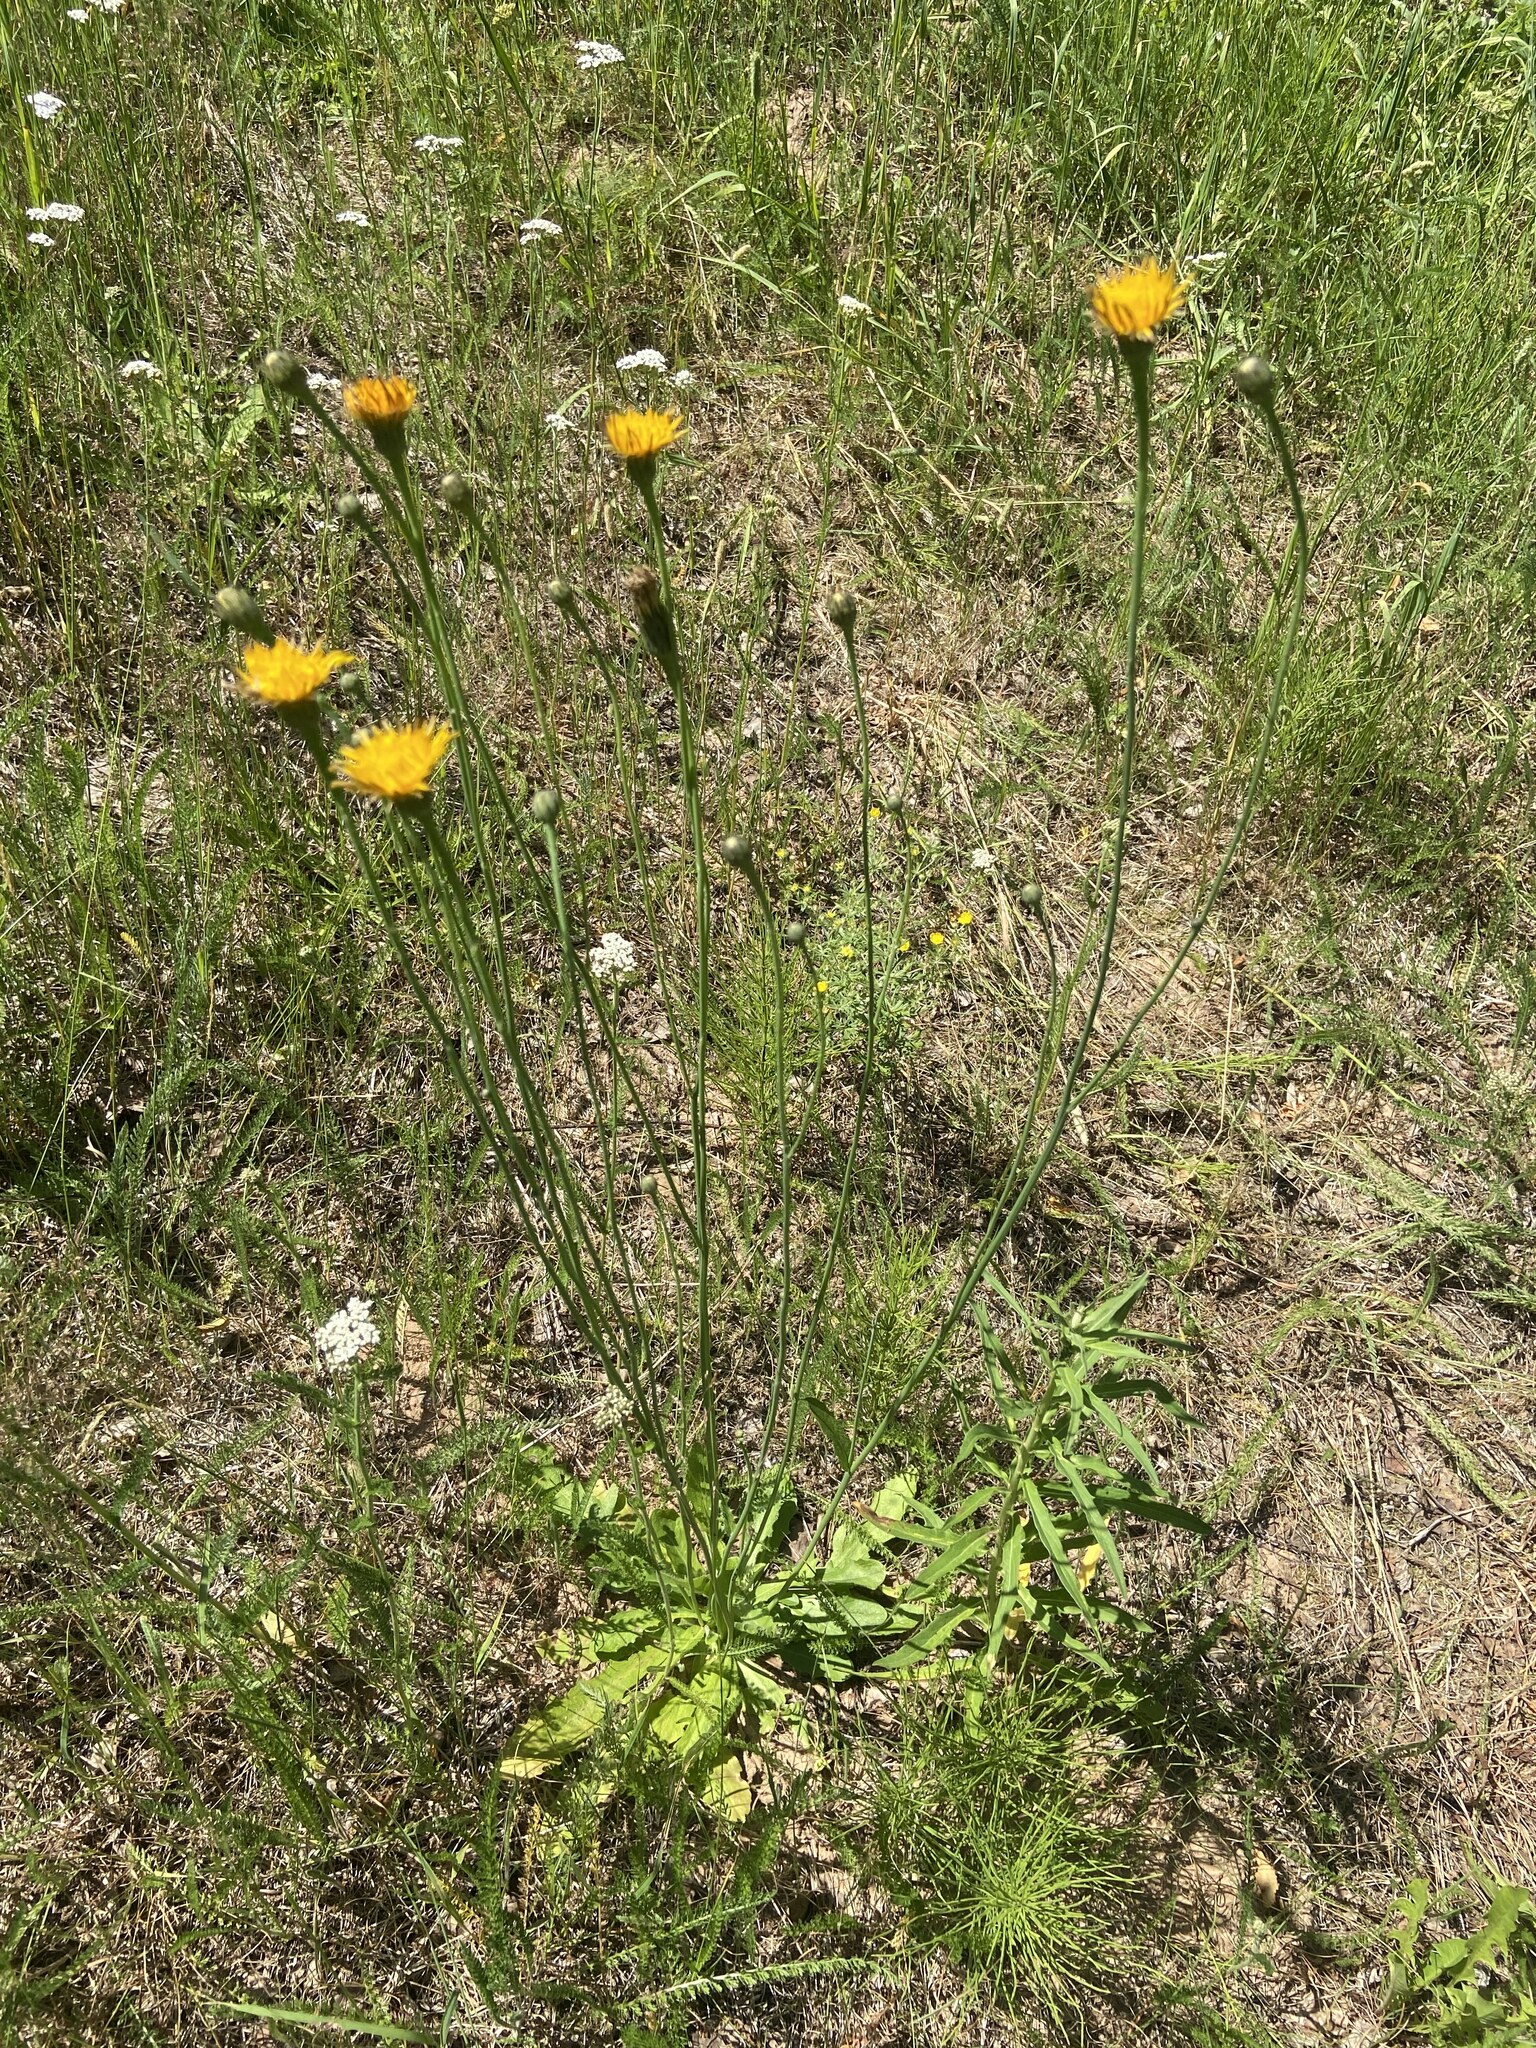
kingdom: Plantae
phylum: Tracheophyta
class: Magnoliopsida
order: Asterales
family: Asteraceae
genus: Hypochaeris
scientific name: Hypochaeris radicata
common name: Flatweed
